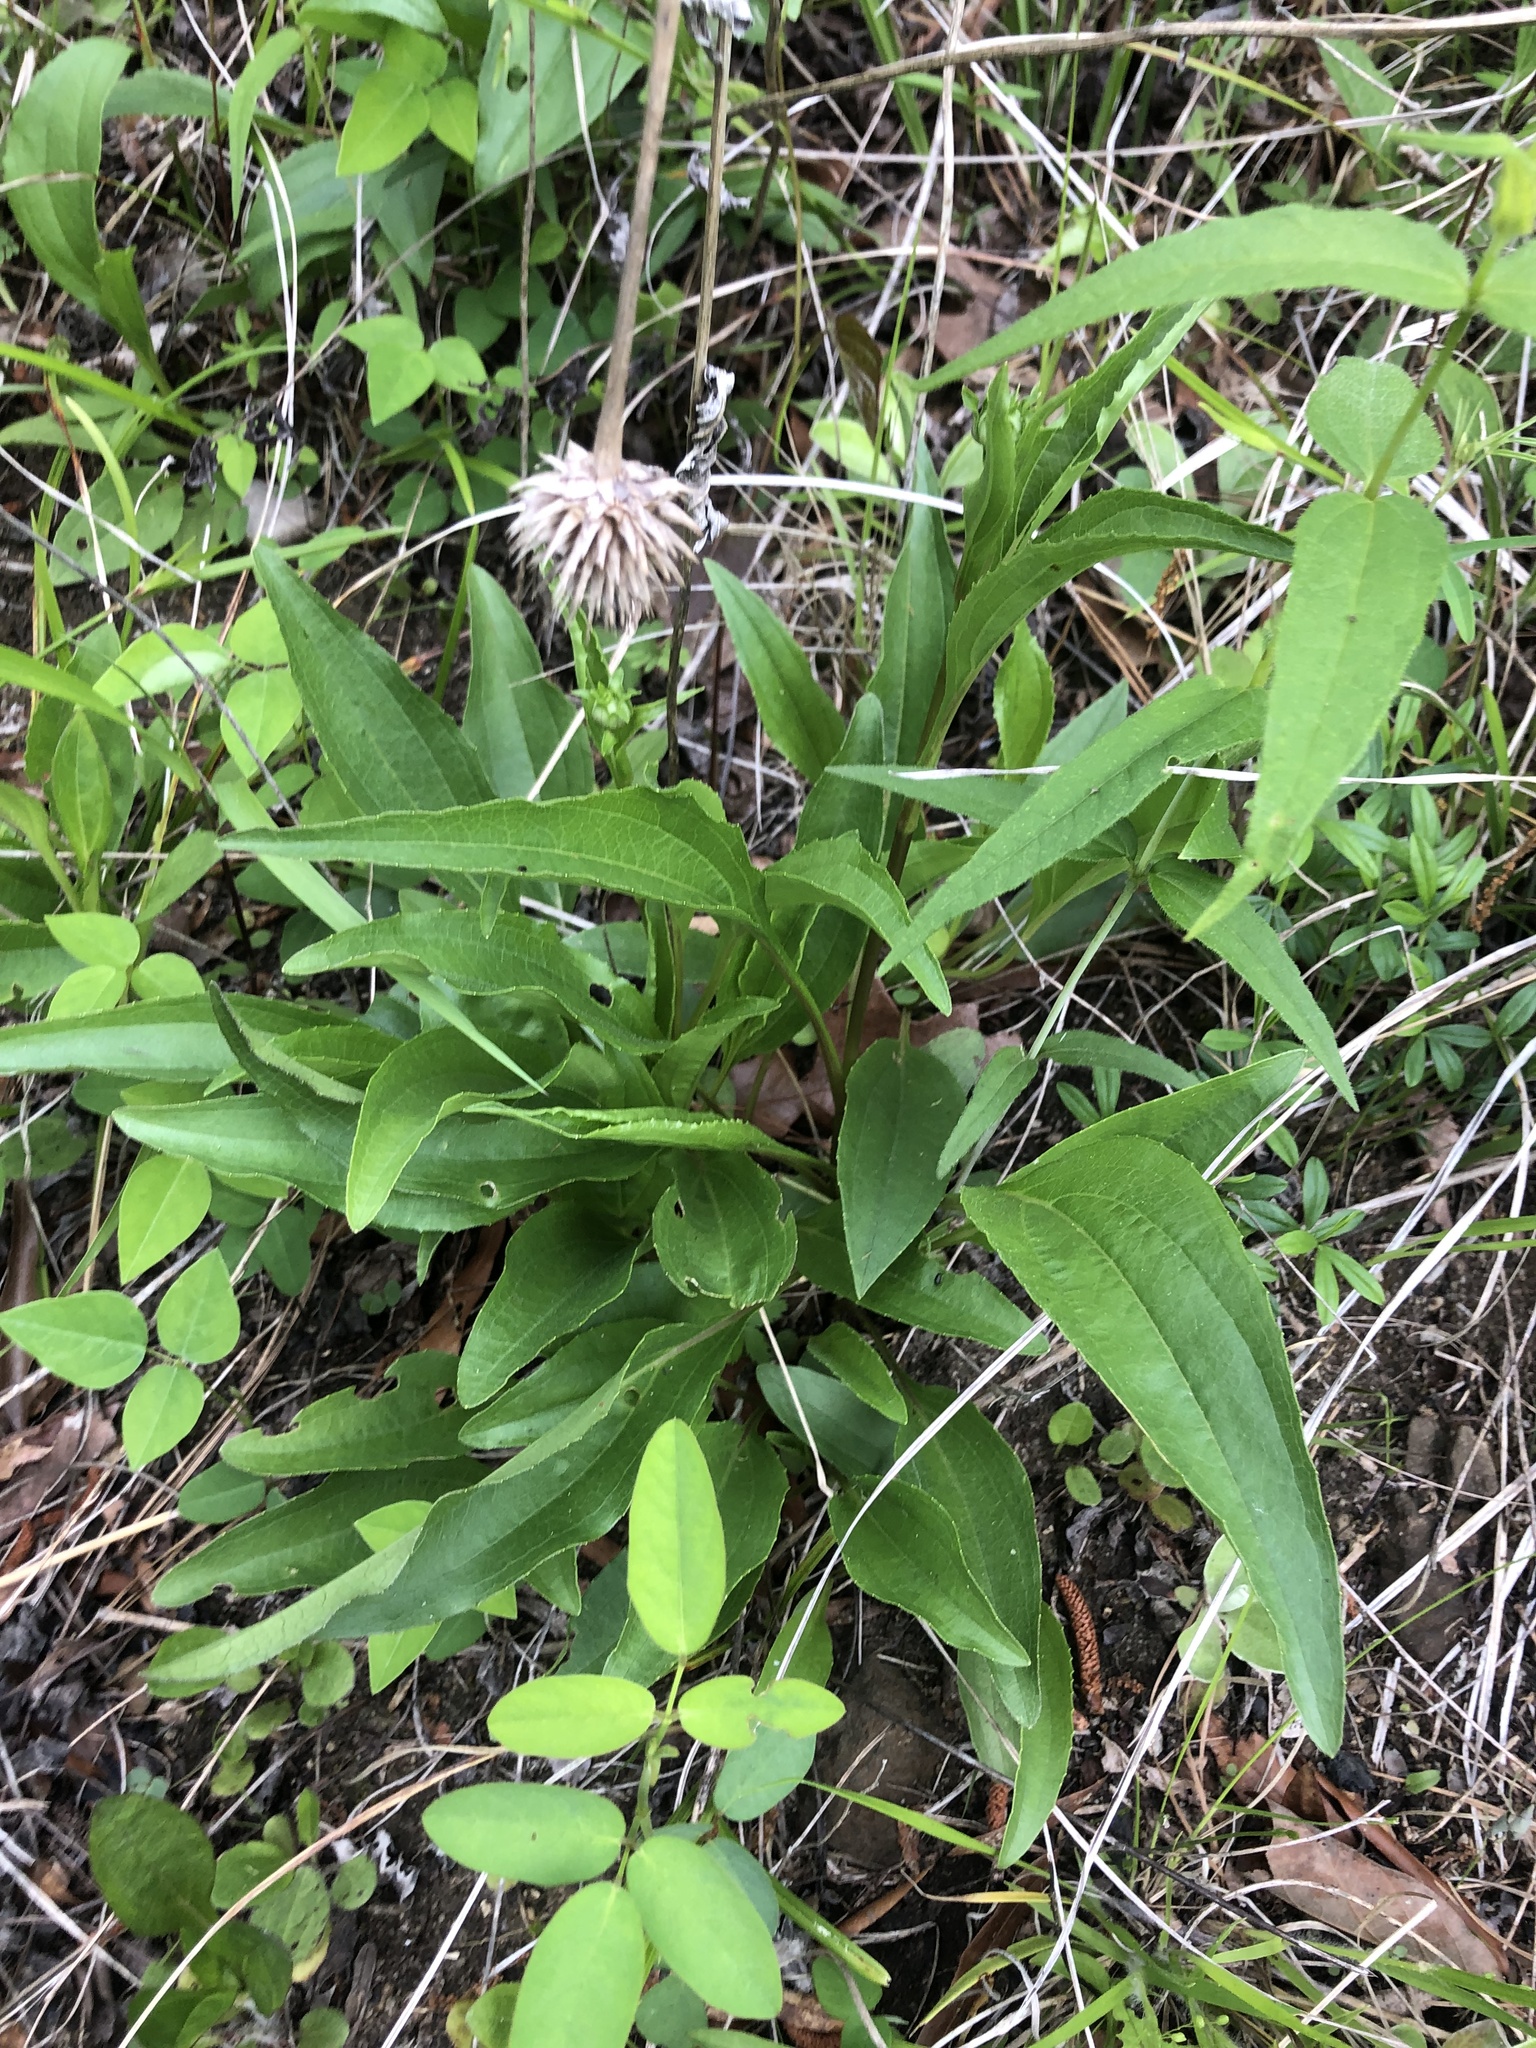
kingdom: Plantae
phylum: Tracheophyta
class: Magnoliopsida
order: Asterales
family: Asteraceae
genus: Echinacea
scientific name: Echinacea laevigata
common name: Smooth coneflower
